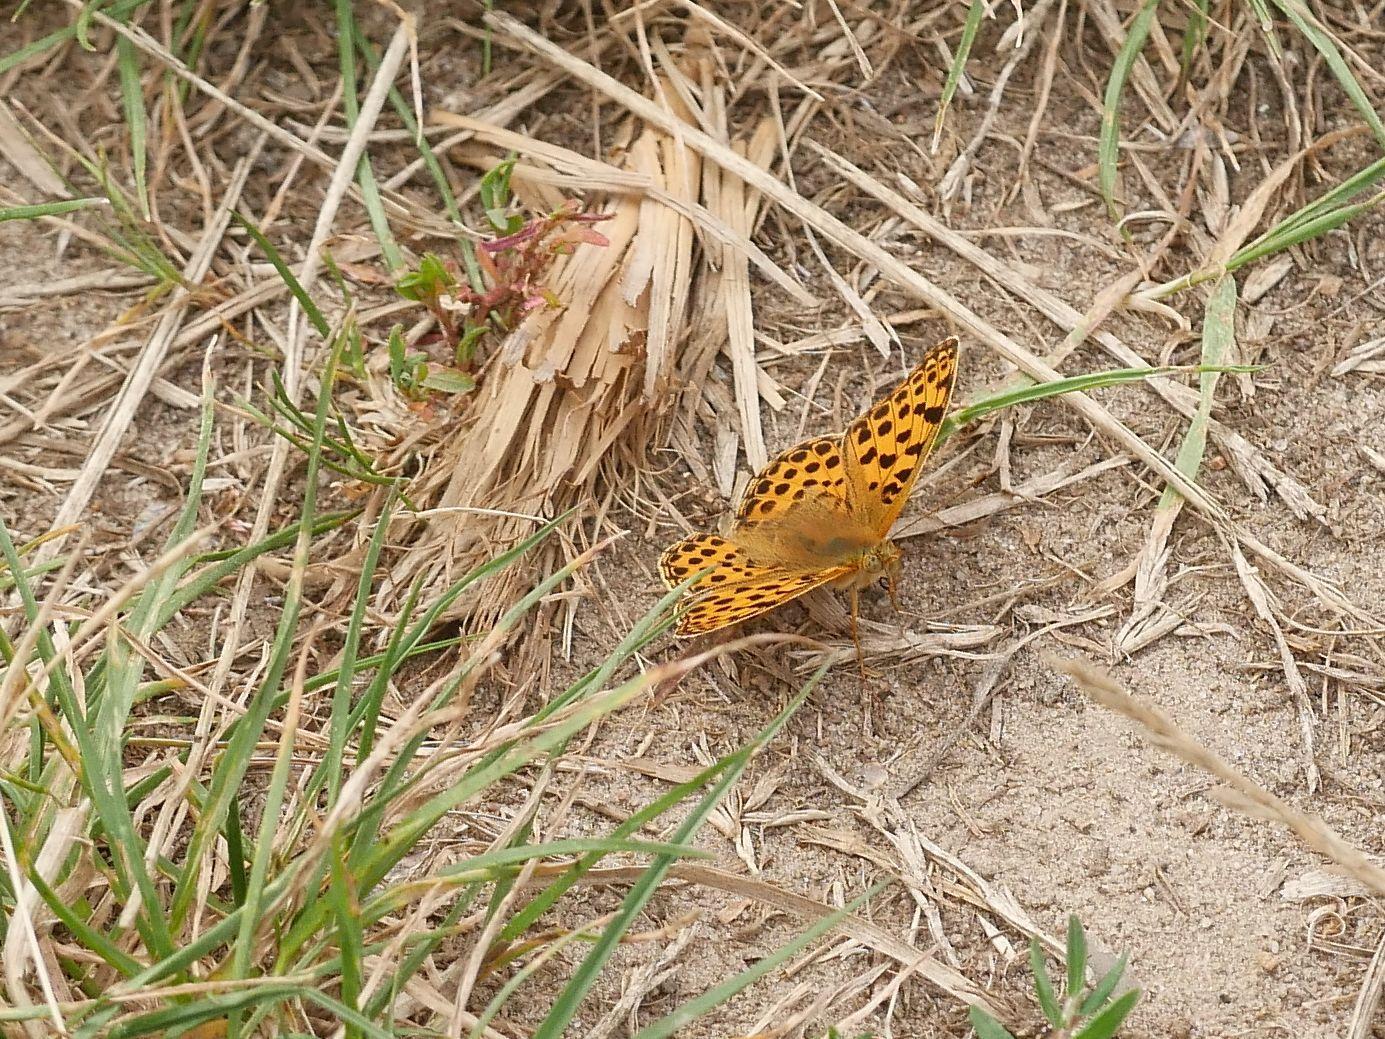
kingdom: Animalia
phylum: Arthropoda
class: Insecta
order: Lepidoptera
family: Nymphalidae
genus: Issoria
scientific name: Issoria lathonia
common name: Queen of spain fritillary
